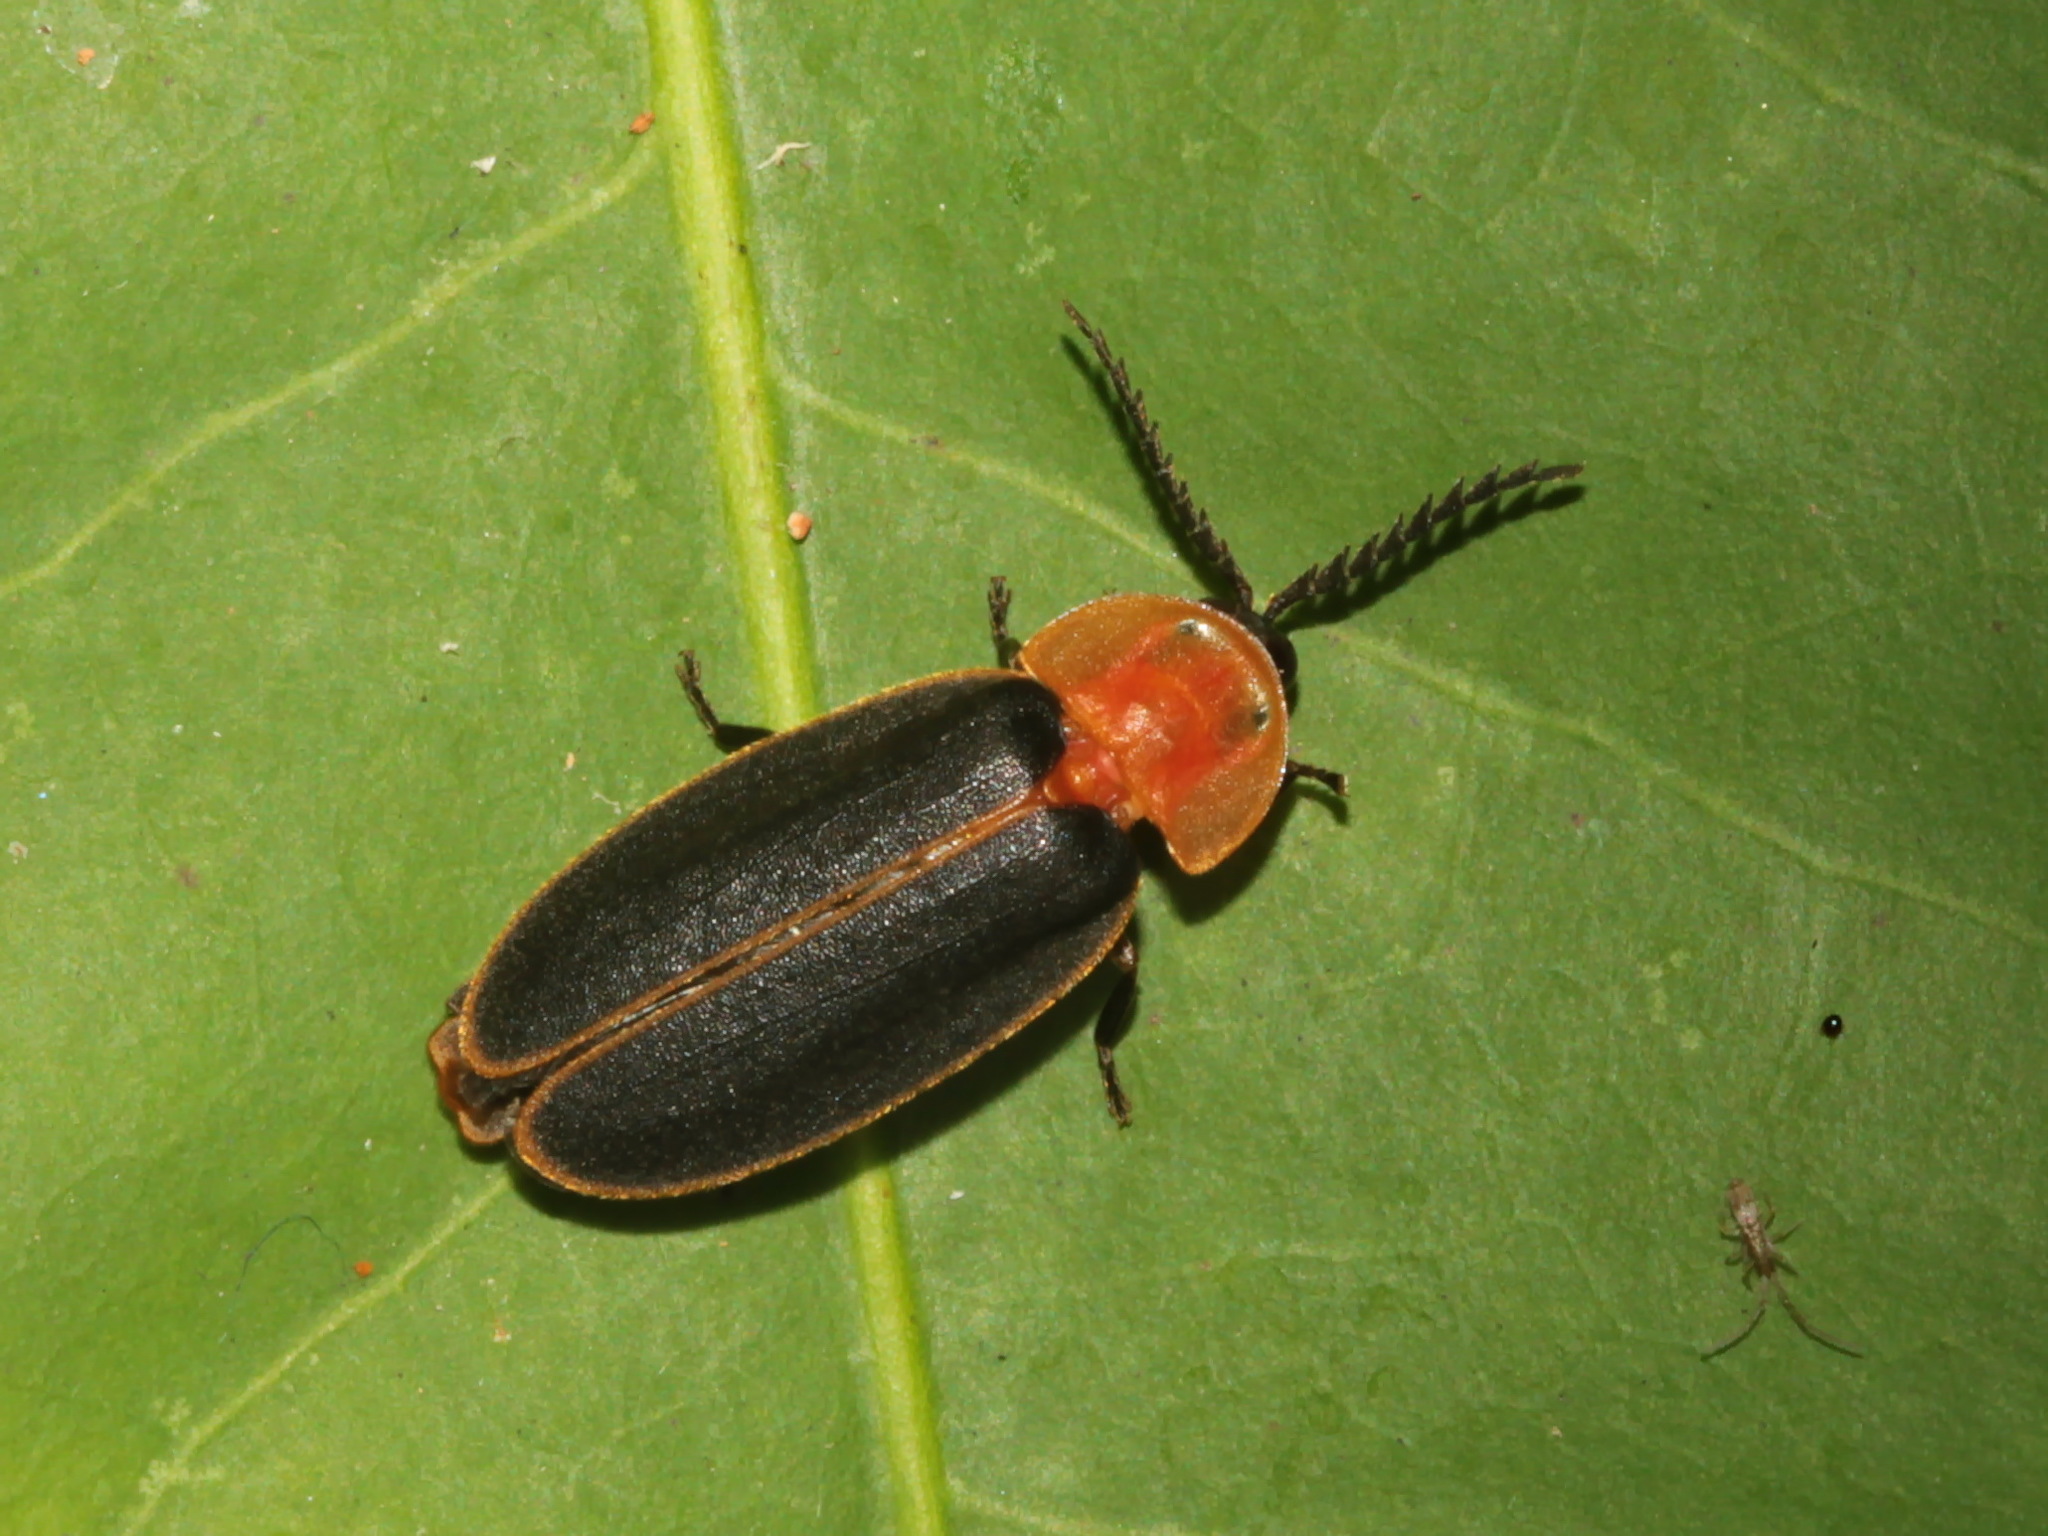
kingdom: Animalia
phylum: Arthropoda
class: Insecta
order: Coleoptera
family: Lampyridae
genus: Pyrocoelia
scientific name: Pyrocoelia praetexta
